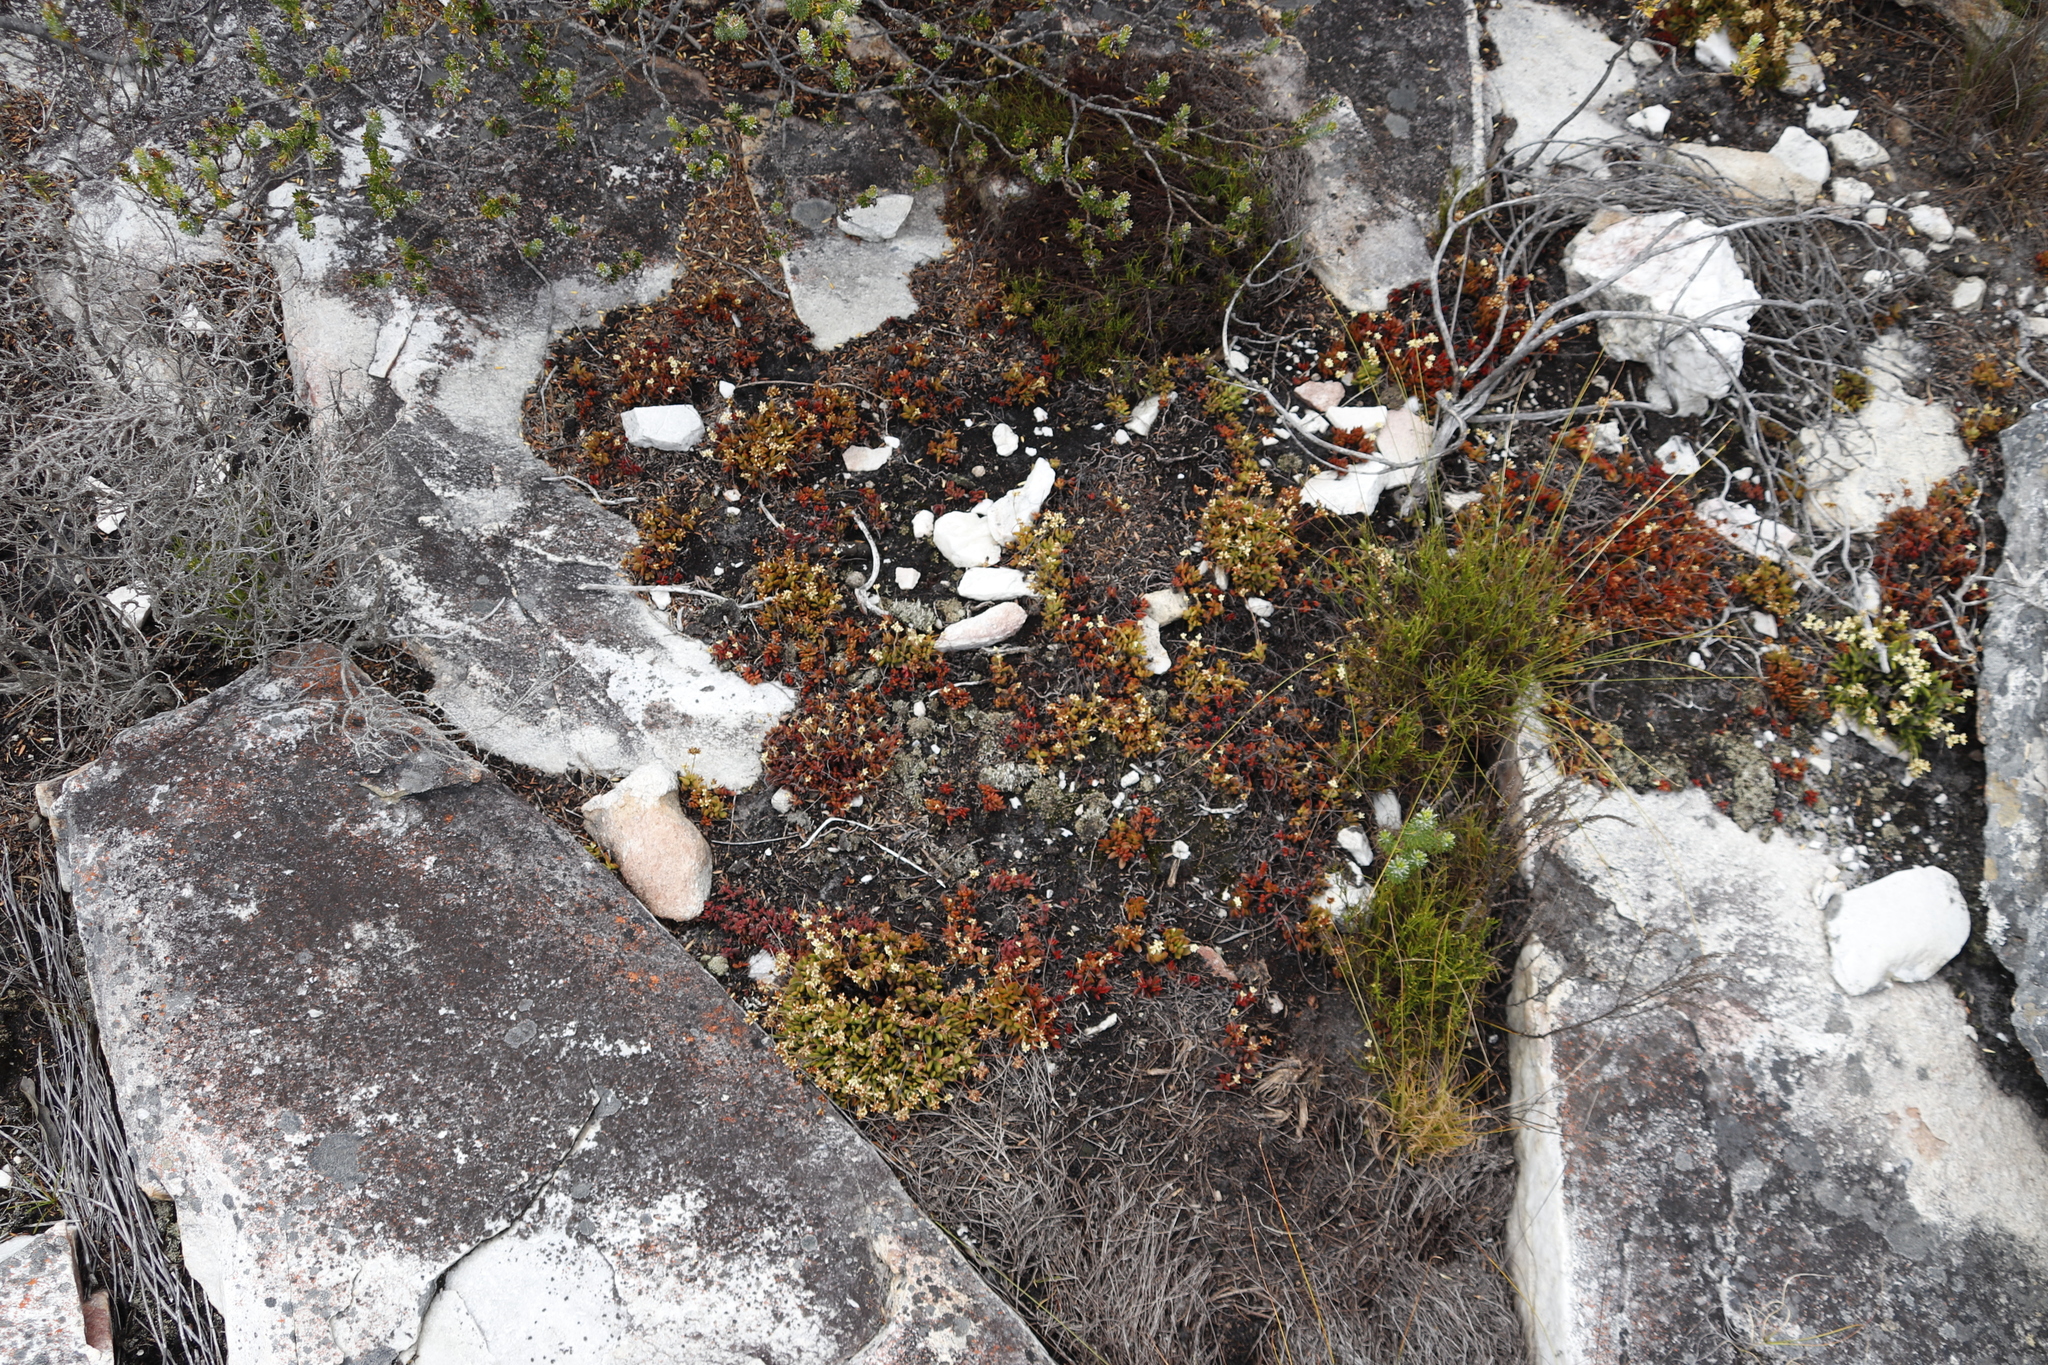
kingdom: Plantae
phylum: Tracheophyta
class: Magnoliopsida
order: Saxifragales
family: Crassulaceae
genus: Crassula
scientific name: Crassula pubescens
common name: Jersey pigmyweed
